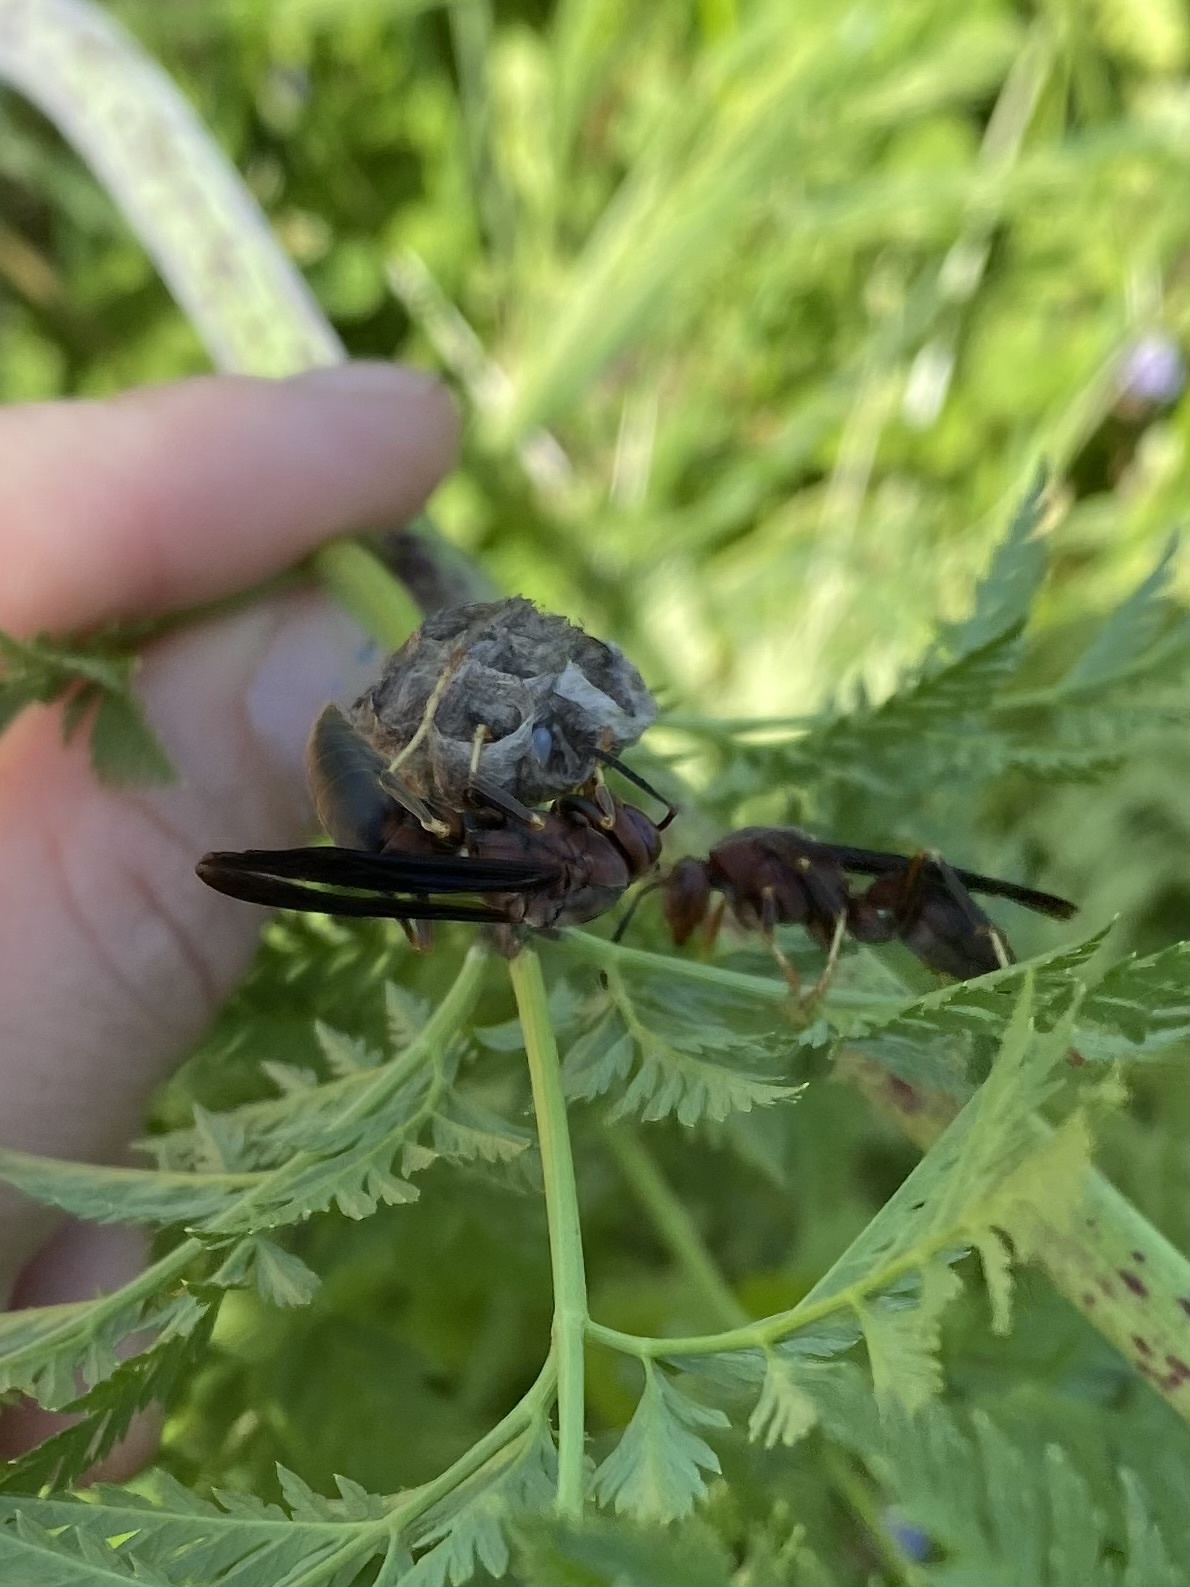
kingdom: Animalia
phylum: Arthropoda
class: Insecta
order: Hymenoptera
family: Eumenidae
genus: Polistes
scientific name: Polistes metricus
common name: Metric paper wasp
